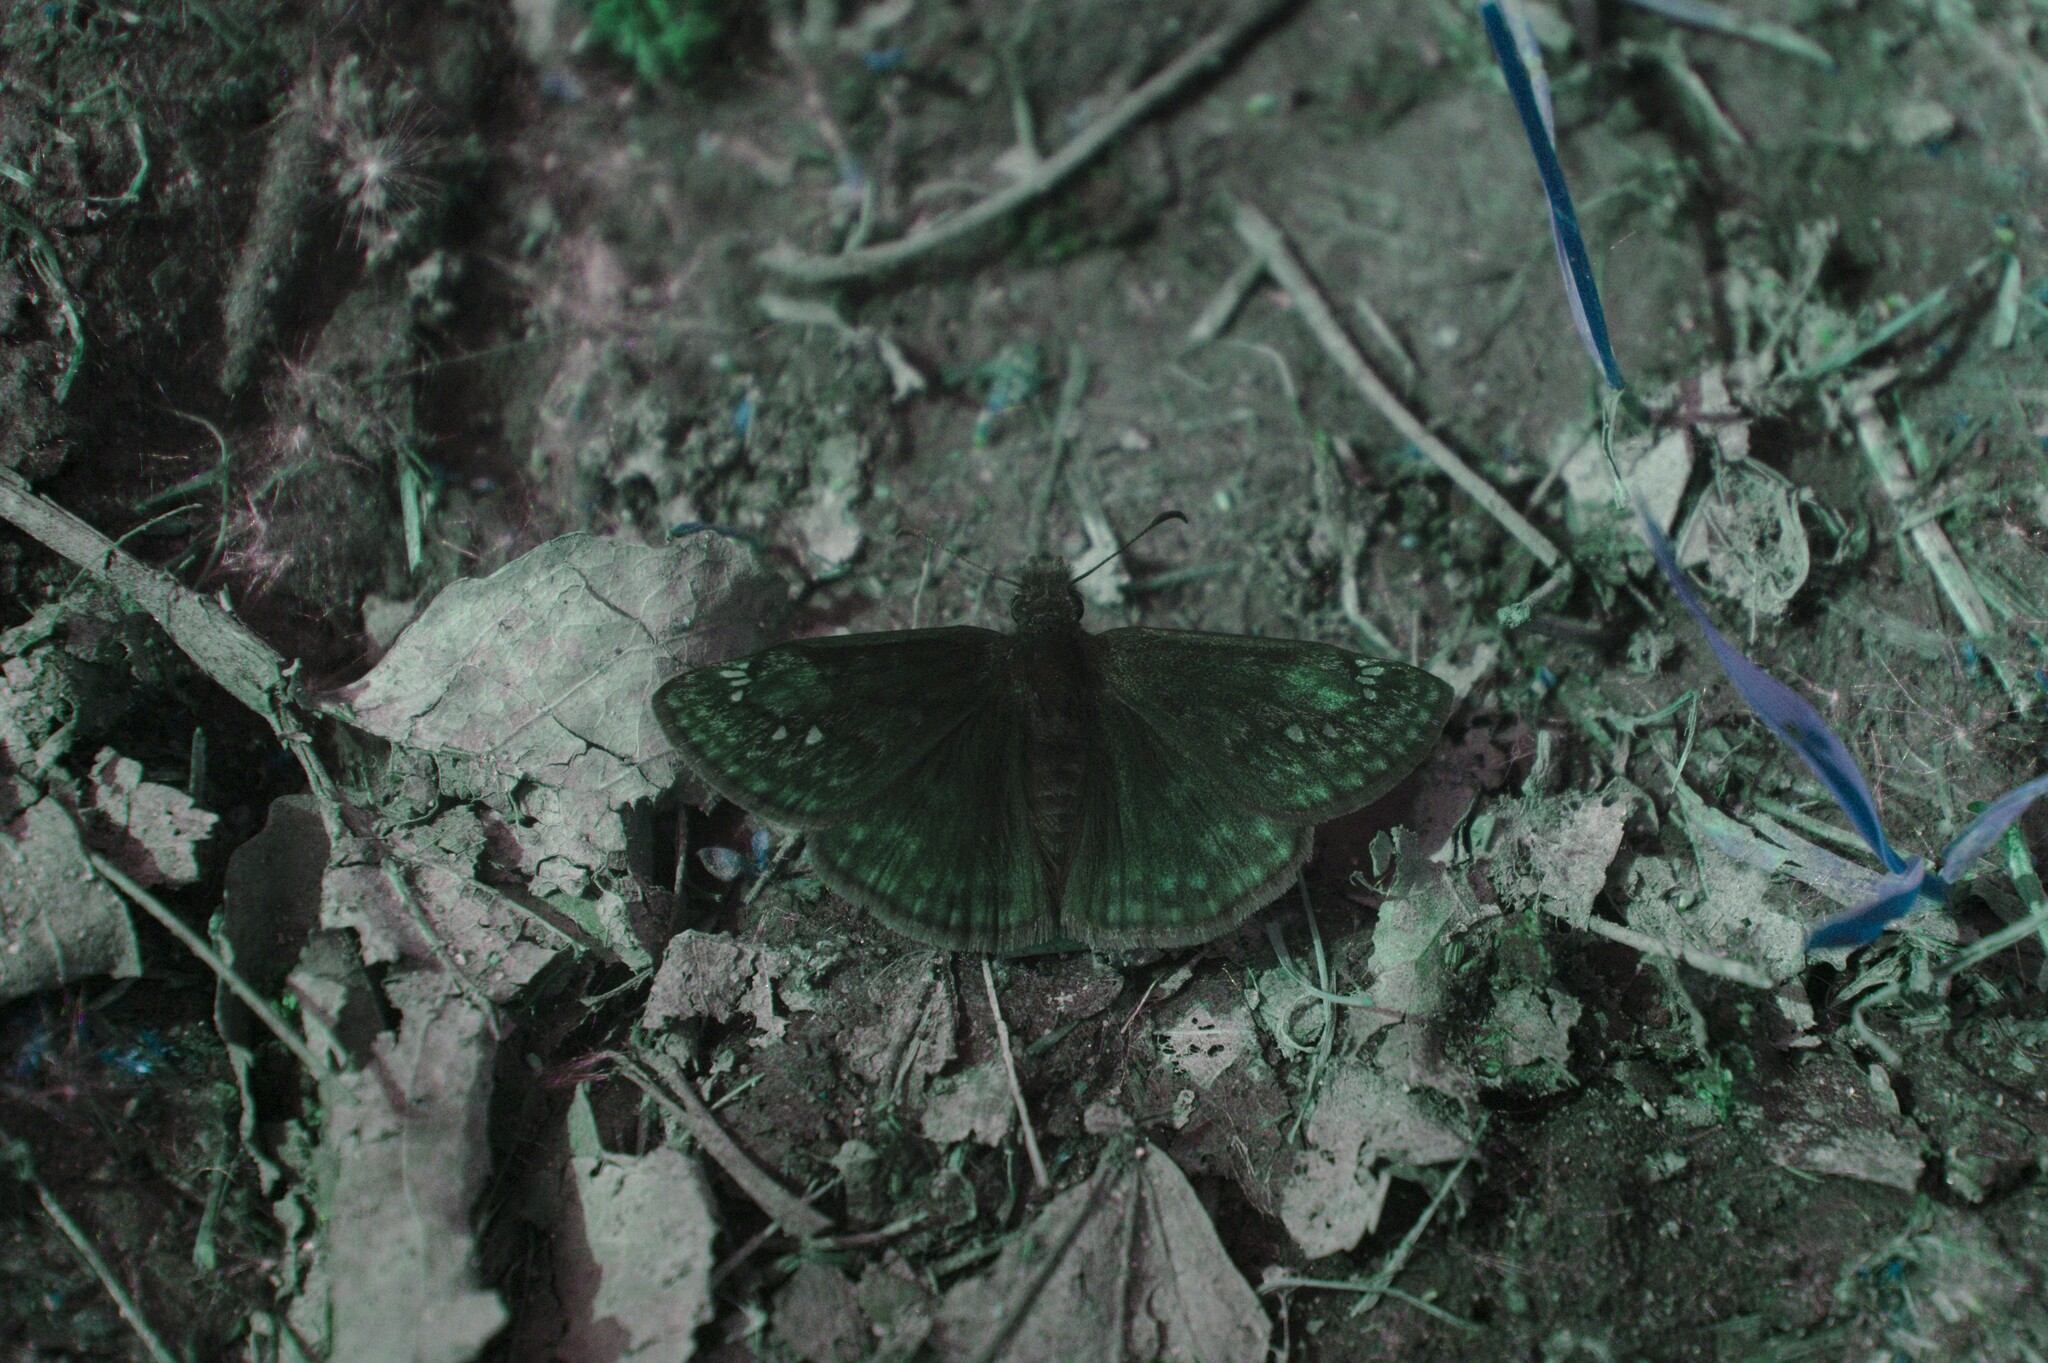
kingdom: Animalia
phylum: Arthropoda
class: Insecta
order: Lepidoptera
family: Hesperiidae
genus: Erynnis
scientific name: Erynnis juvenalis
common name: Juvenal's duskywing
